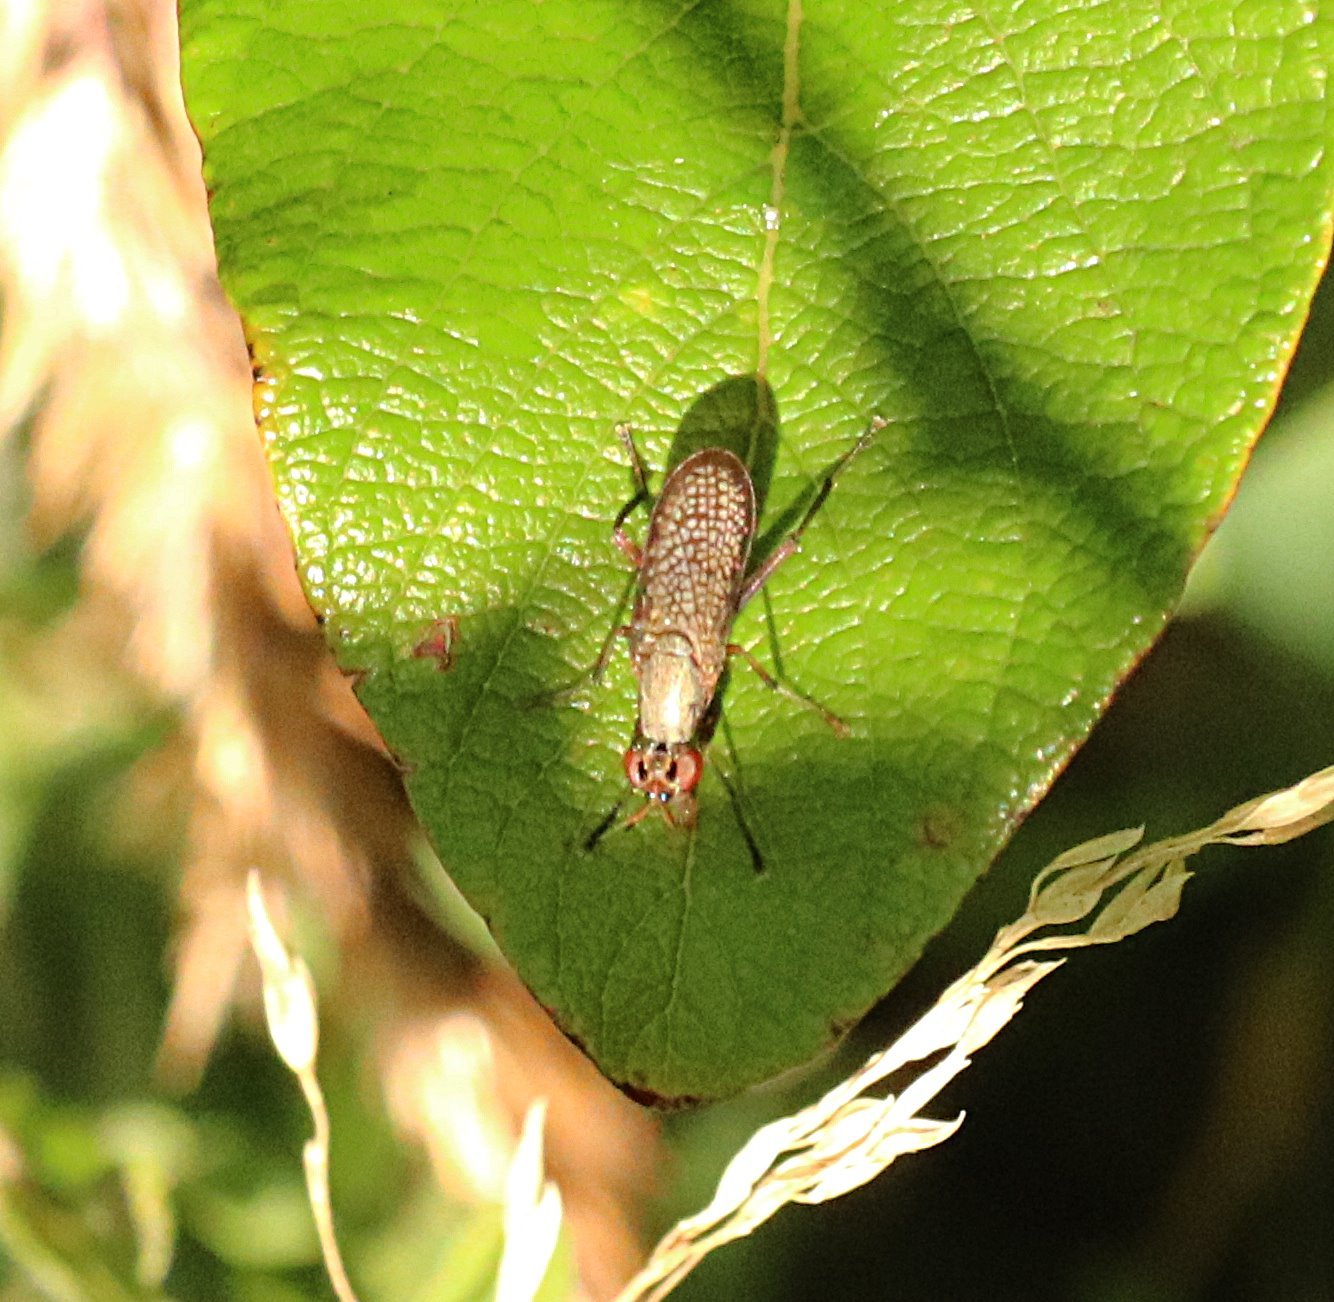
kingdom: Animalia
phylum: Arthropoda
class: Insecta
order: Diptera
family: Sciomyzidae
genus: Coremacera
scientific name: Coremacera marginata
